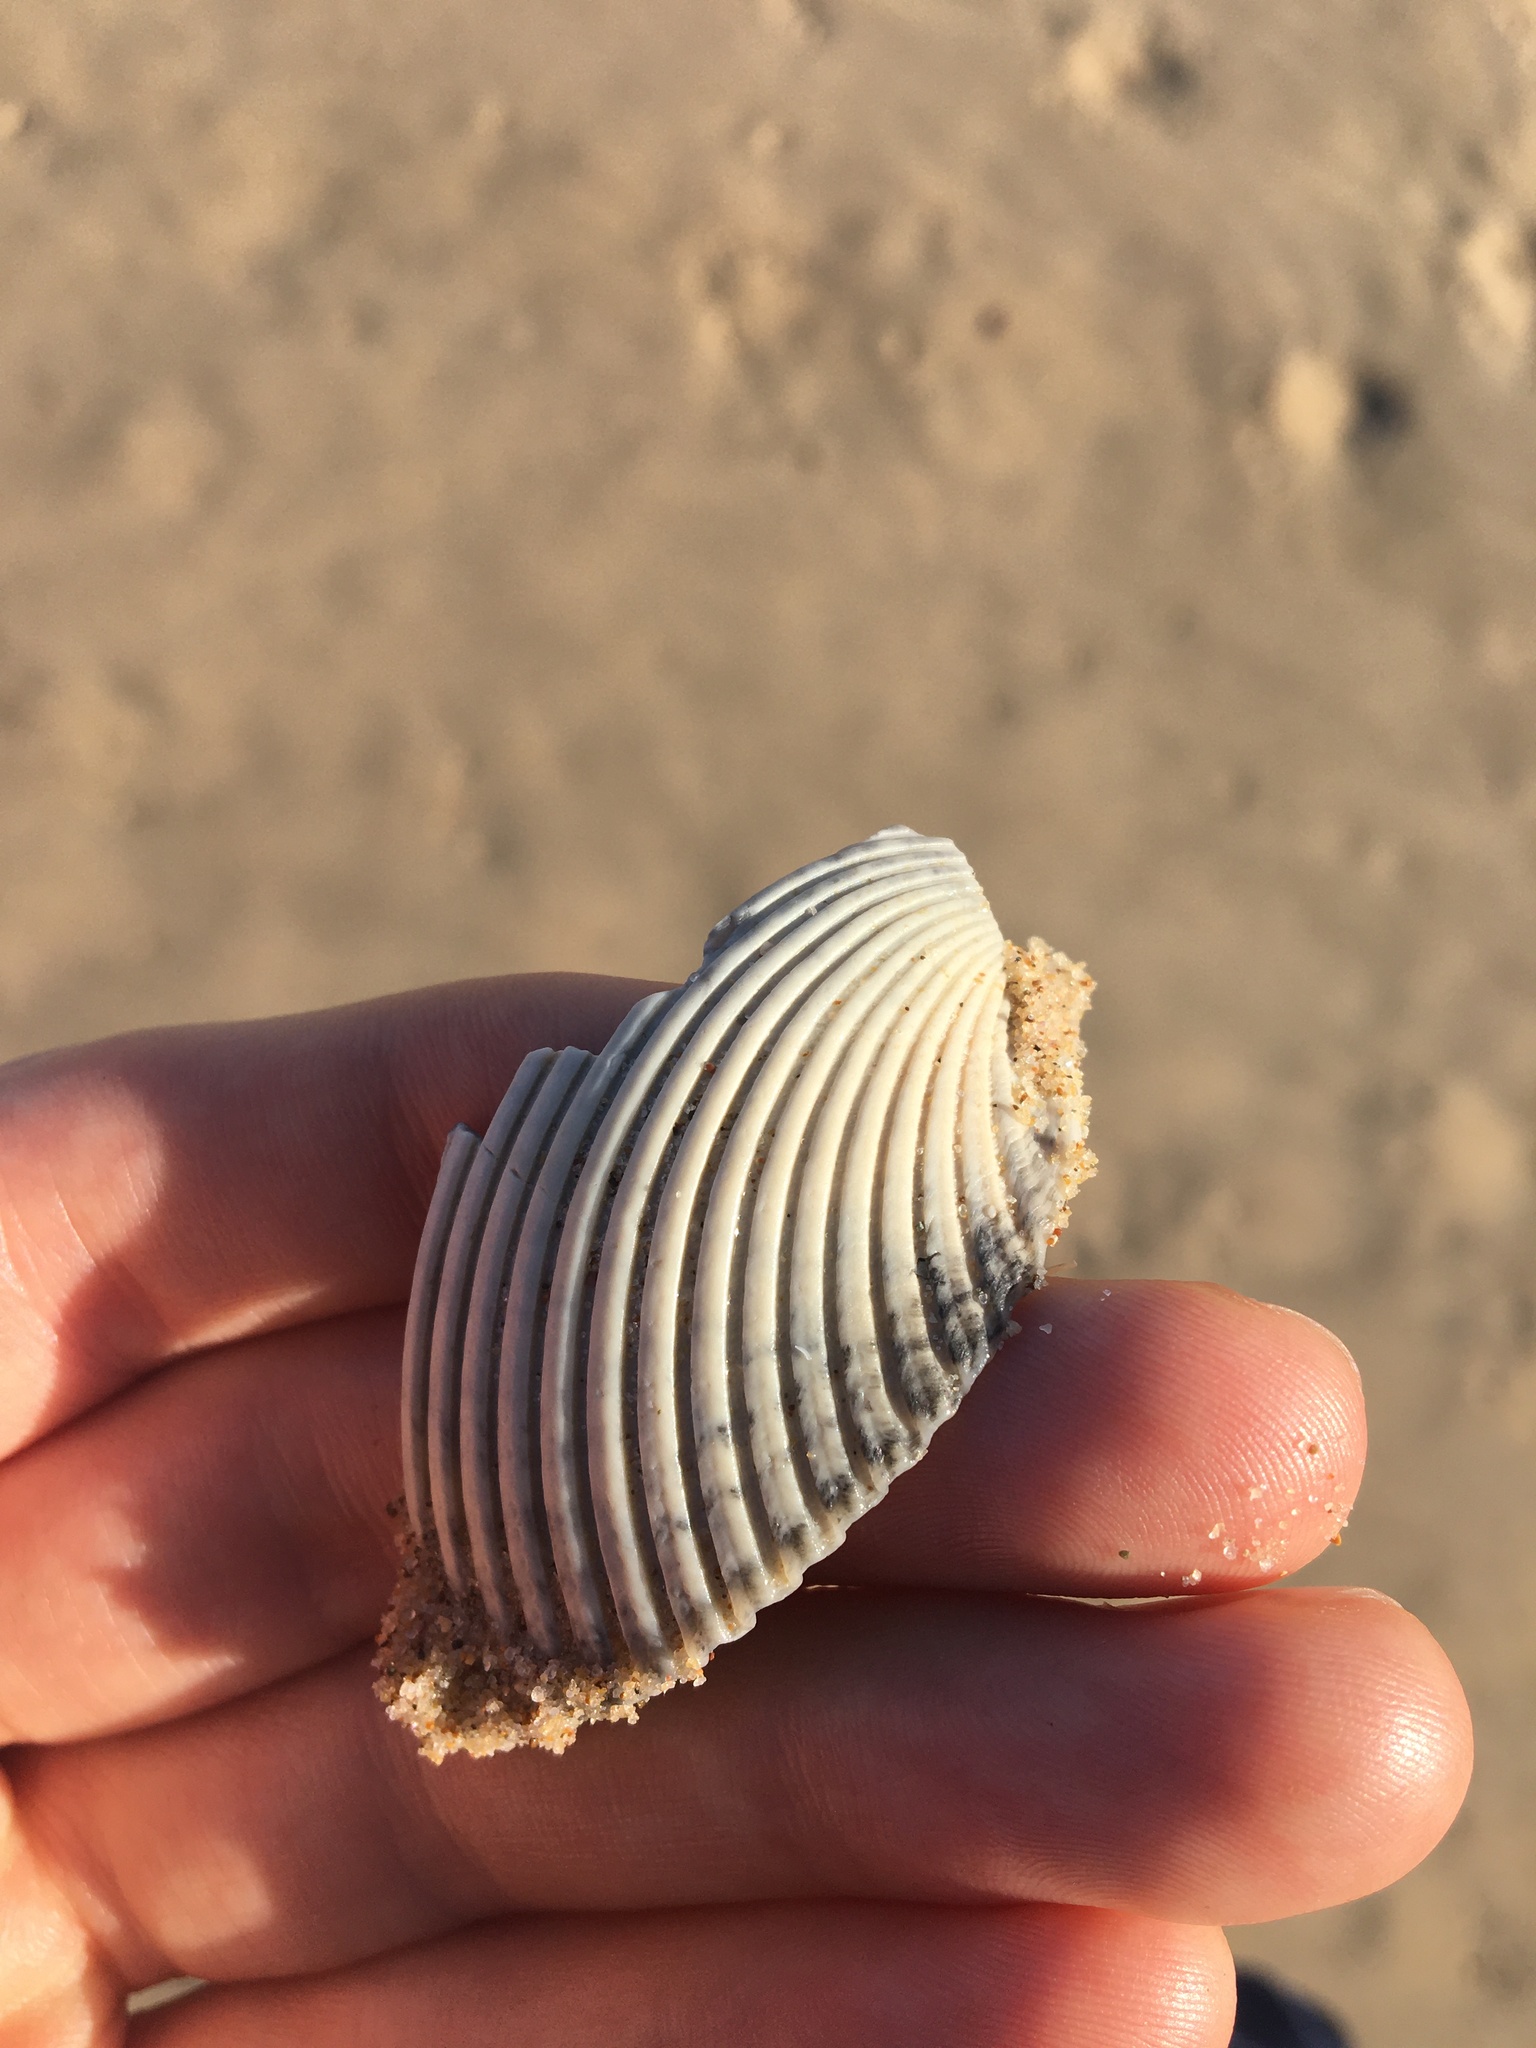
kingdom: Animalia
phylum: Mollusca
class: Bivalvia
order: Cardiida
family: Cardiidae
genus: Vepricardium
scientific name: Vepricardium multispinosum
